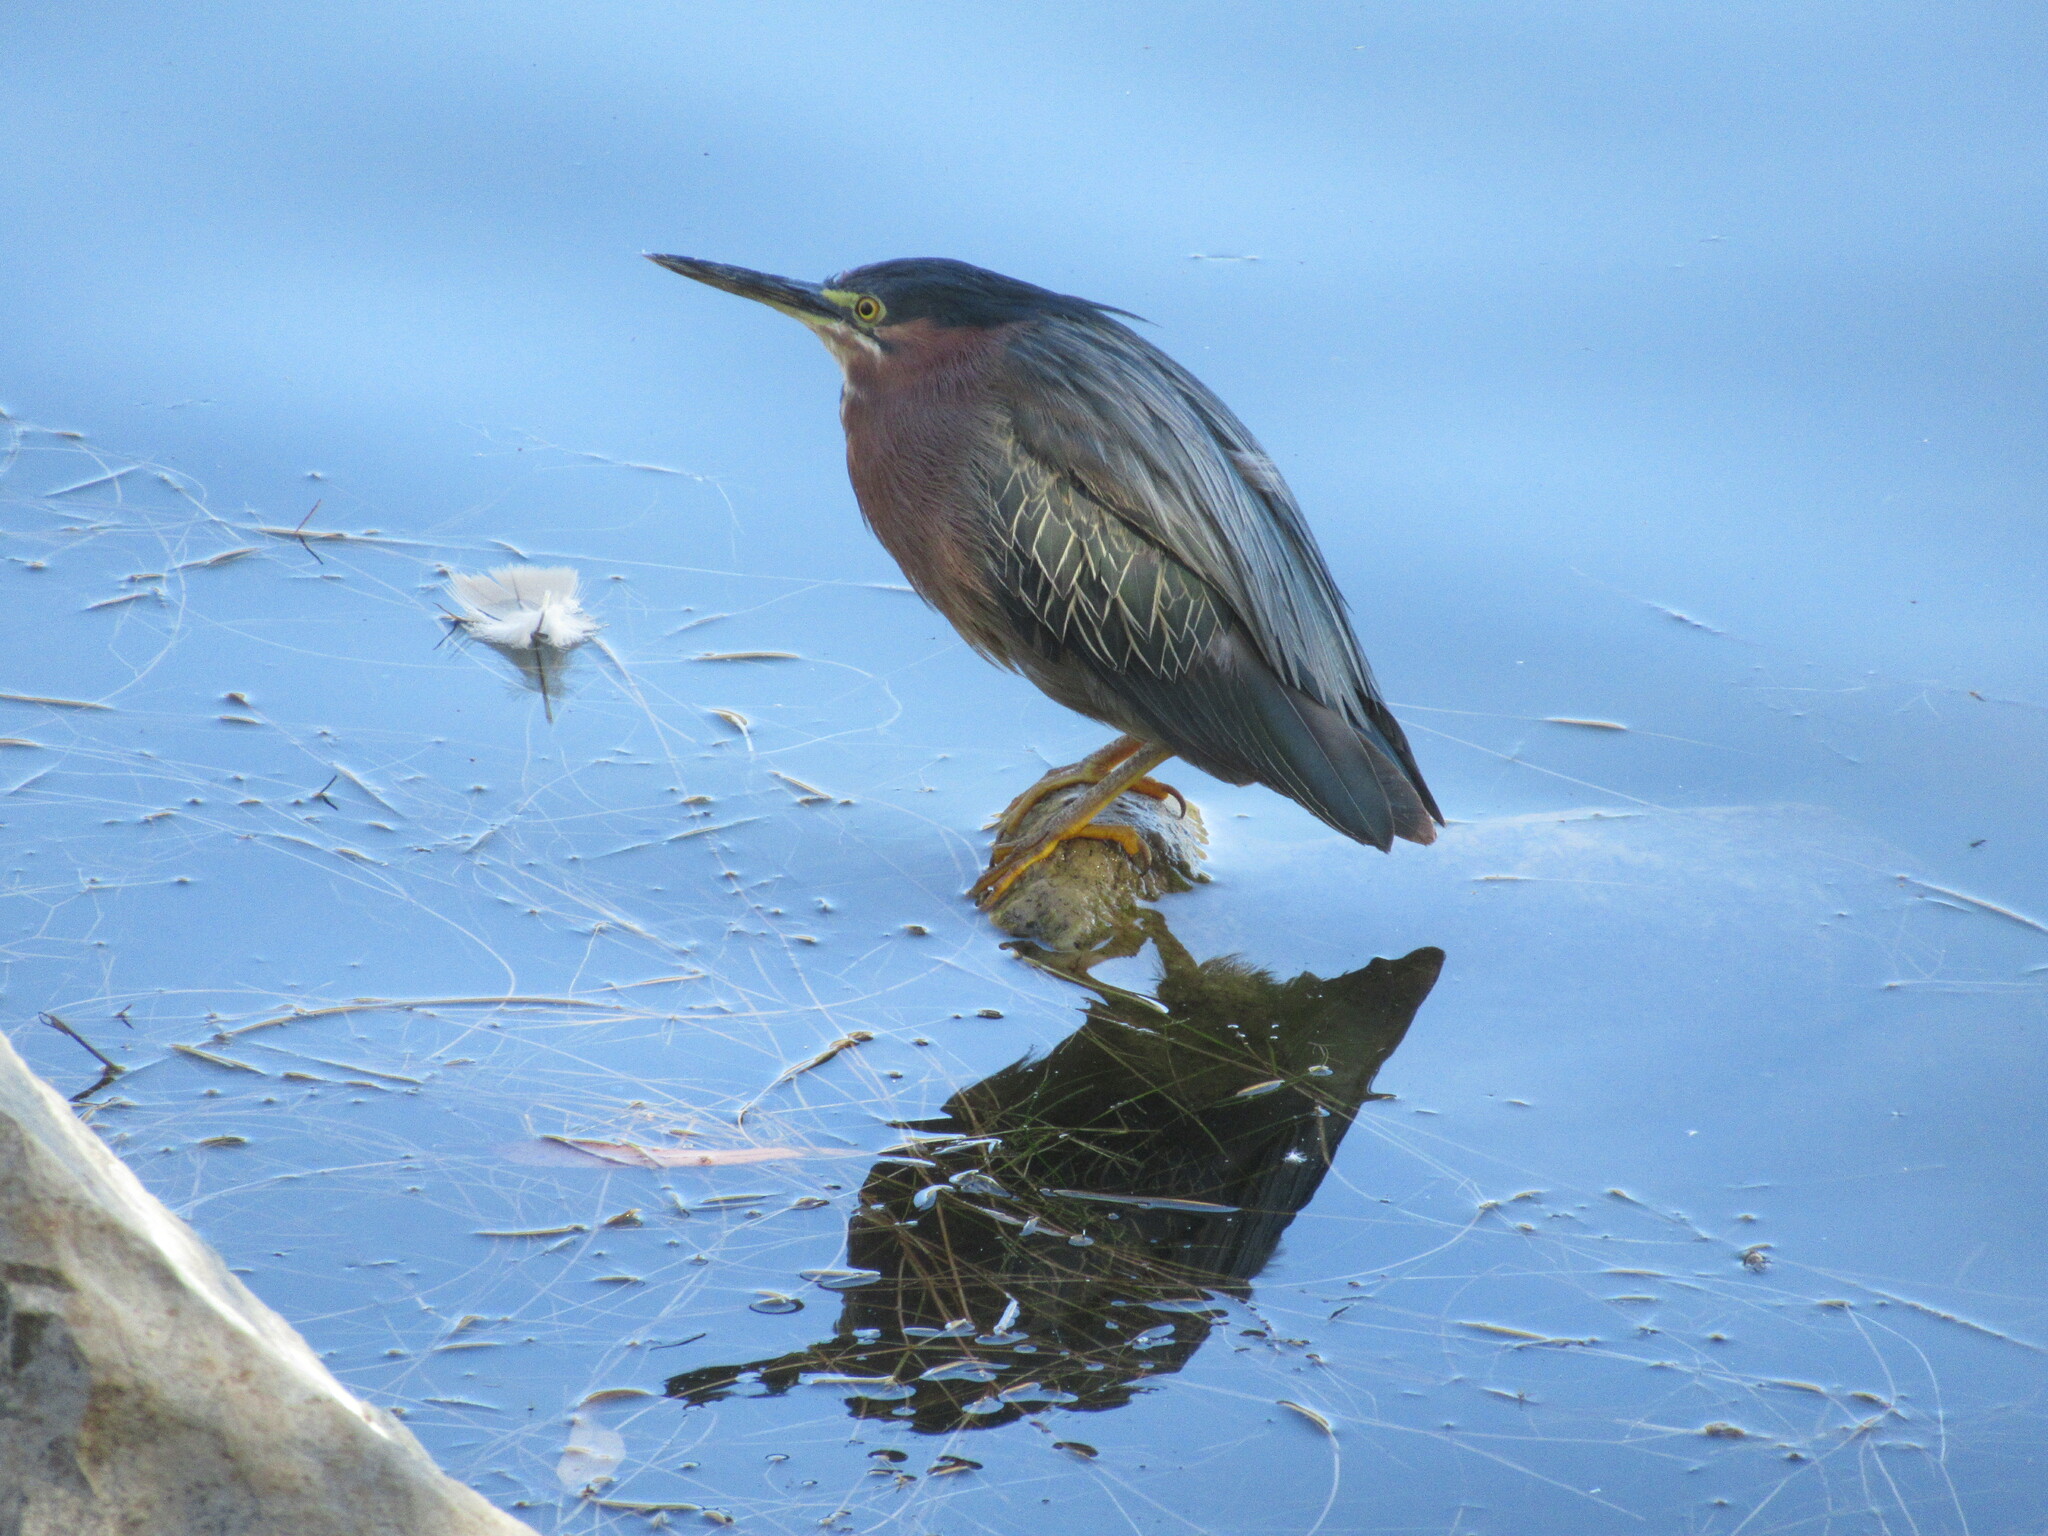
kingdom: Animalia
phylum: Chordata
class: Aves
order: Pelecaniformes
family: Ardeidae
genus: Butorides
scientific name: Butorides virescens
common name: Green heron
